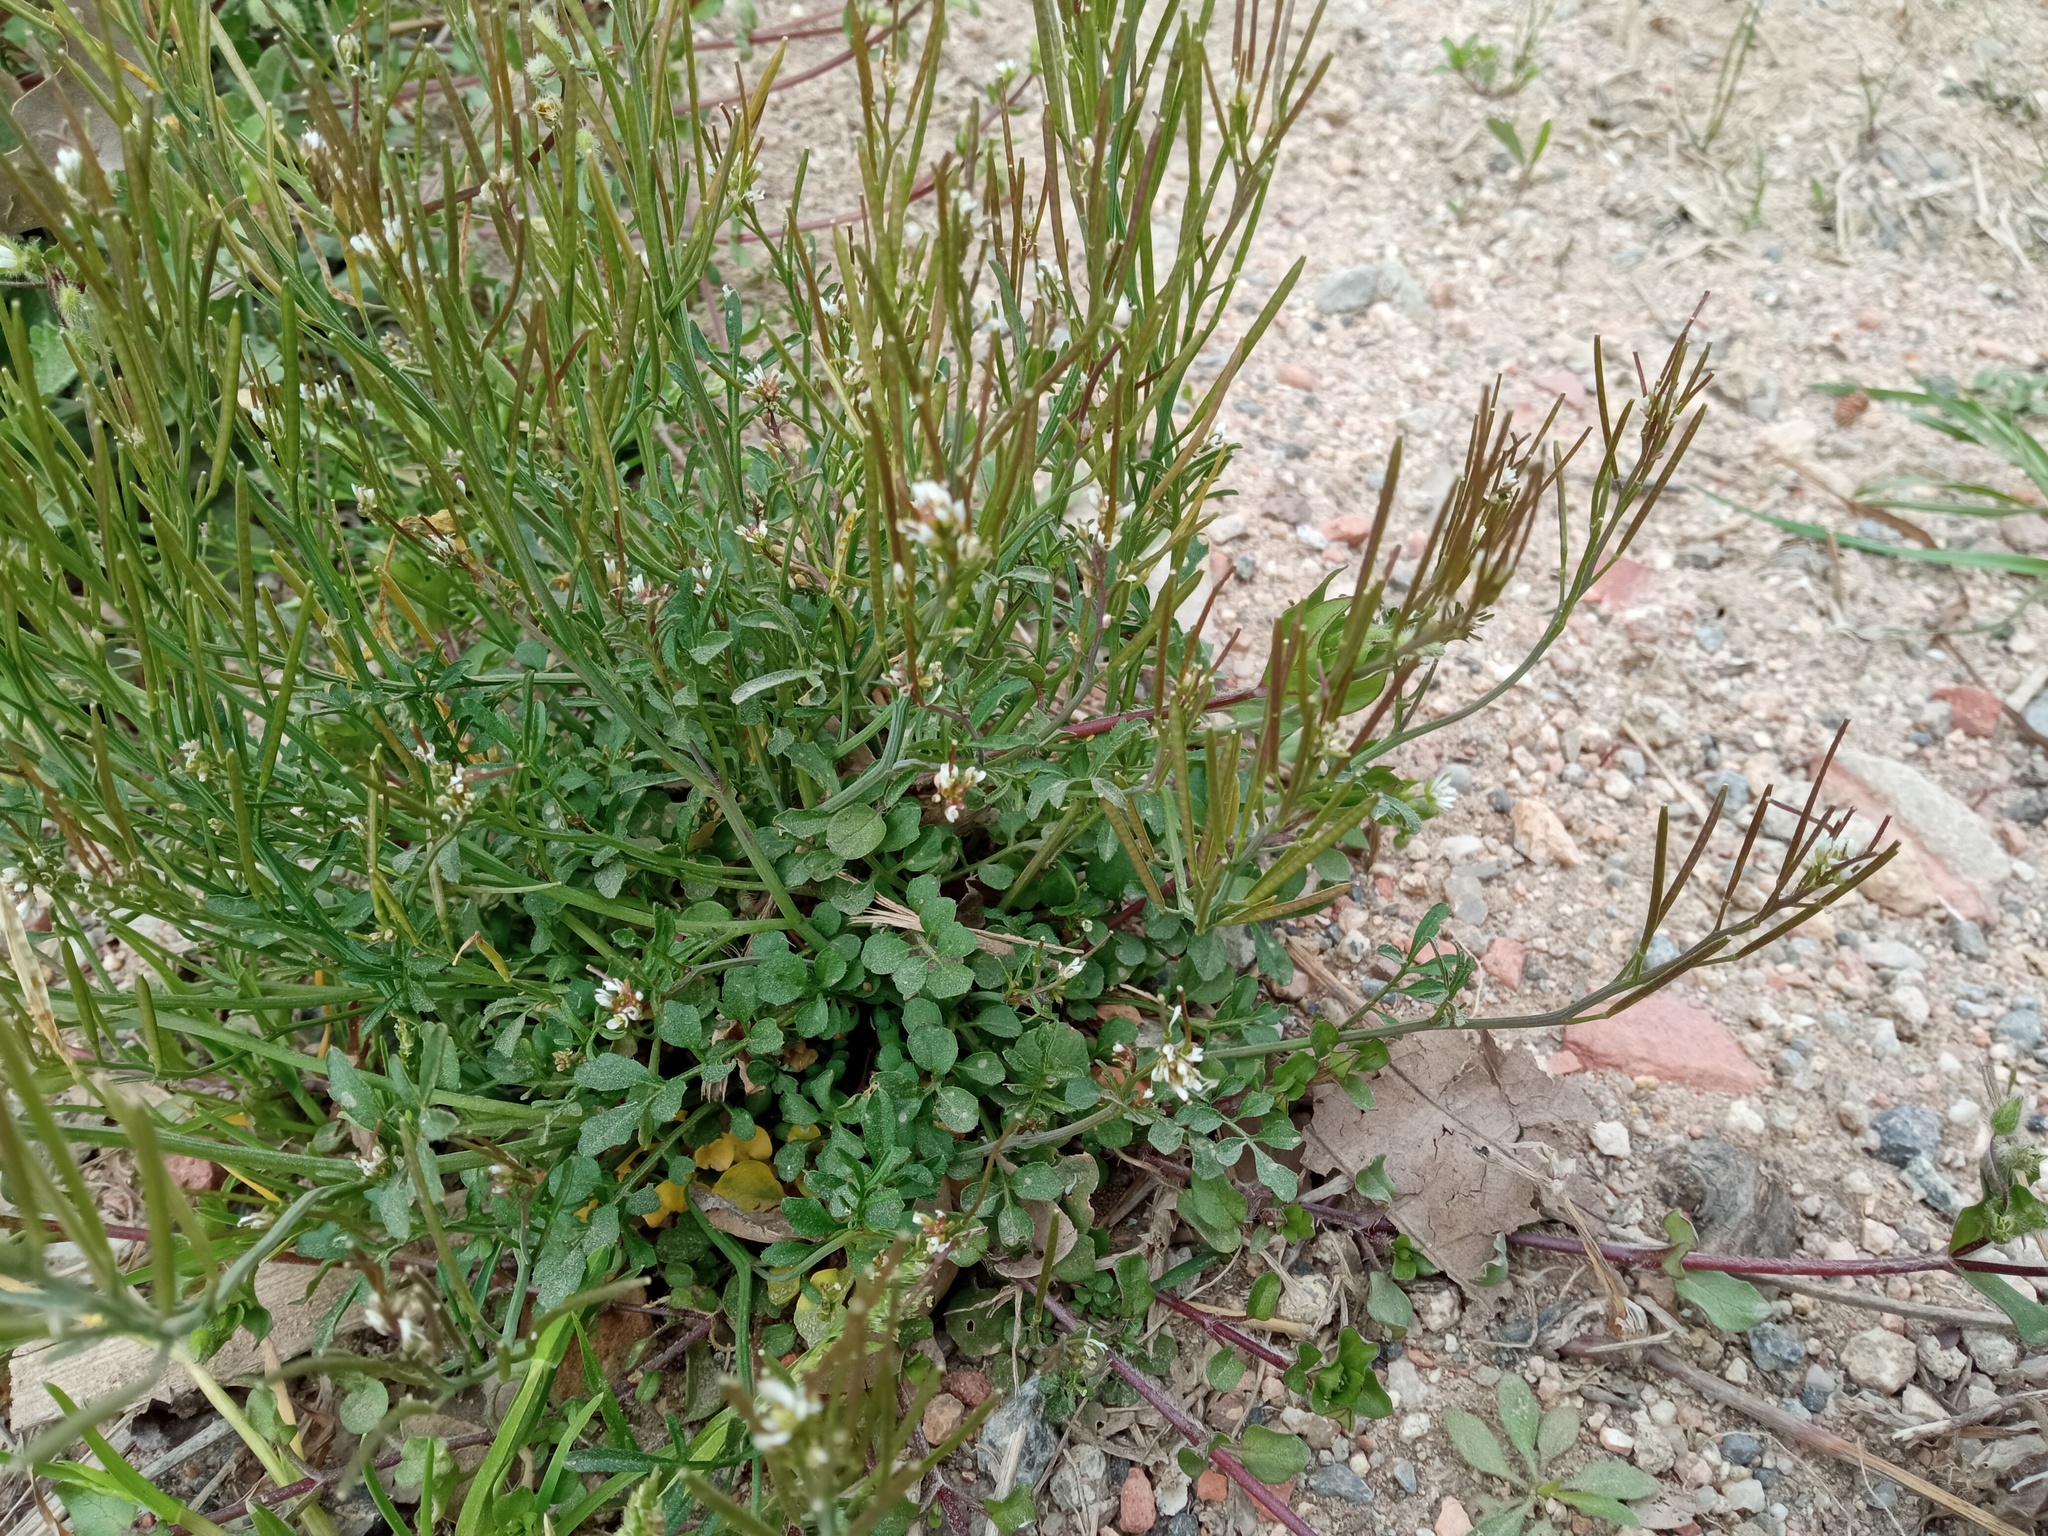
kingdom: Plantae
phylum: Tracheophyta
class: Magnoliopsida
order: Brassicales
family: Brassicaceae
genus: Cardamine
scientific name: Cardamine hirsuta
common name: Hairy bittercress
